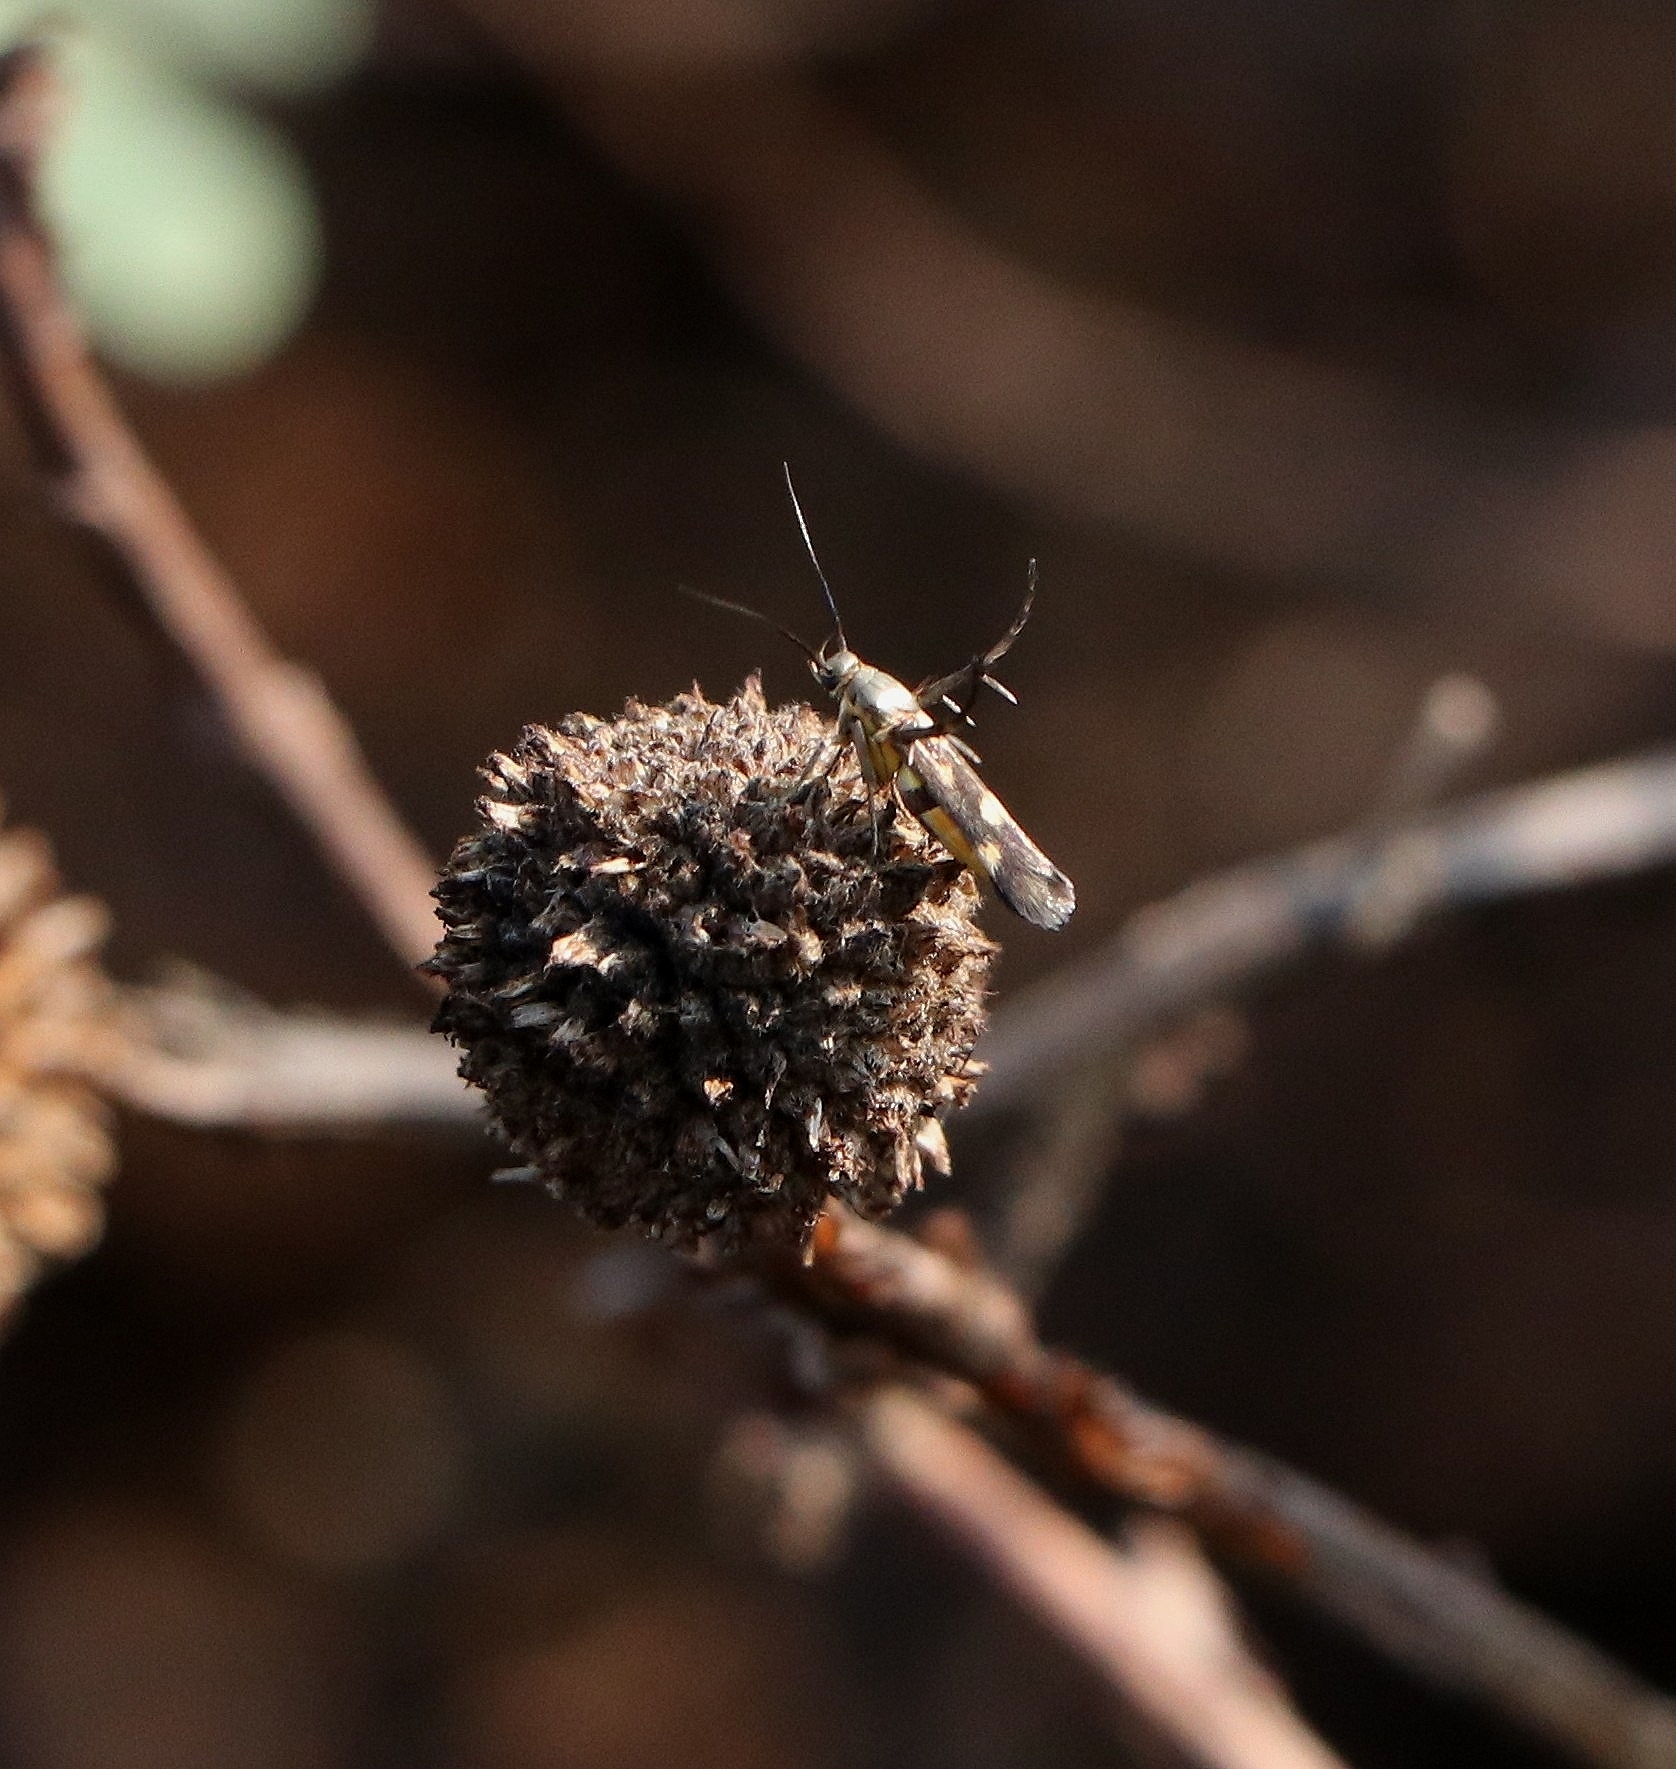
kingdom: Animalia
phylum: Arthropoda
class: Insecta
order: Lepidoptera
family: Scythrididae
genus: Eretmocera
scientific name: Eretmocera impactella
